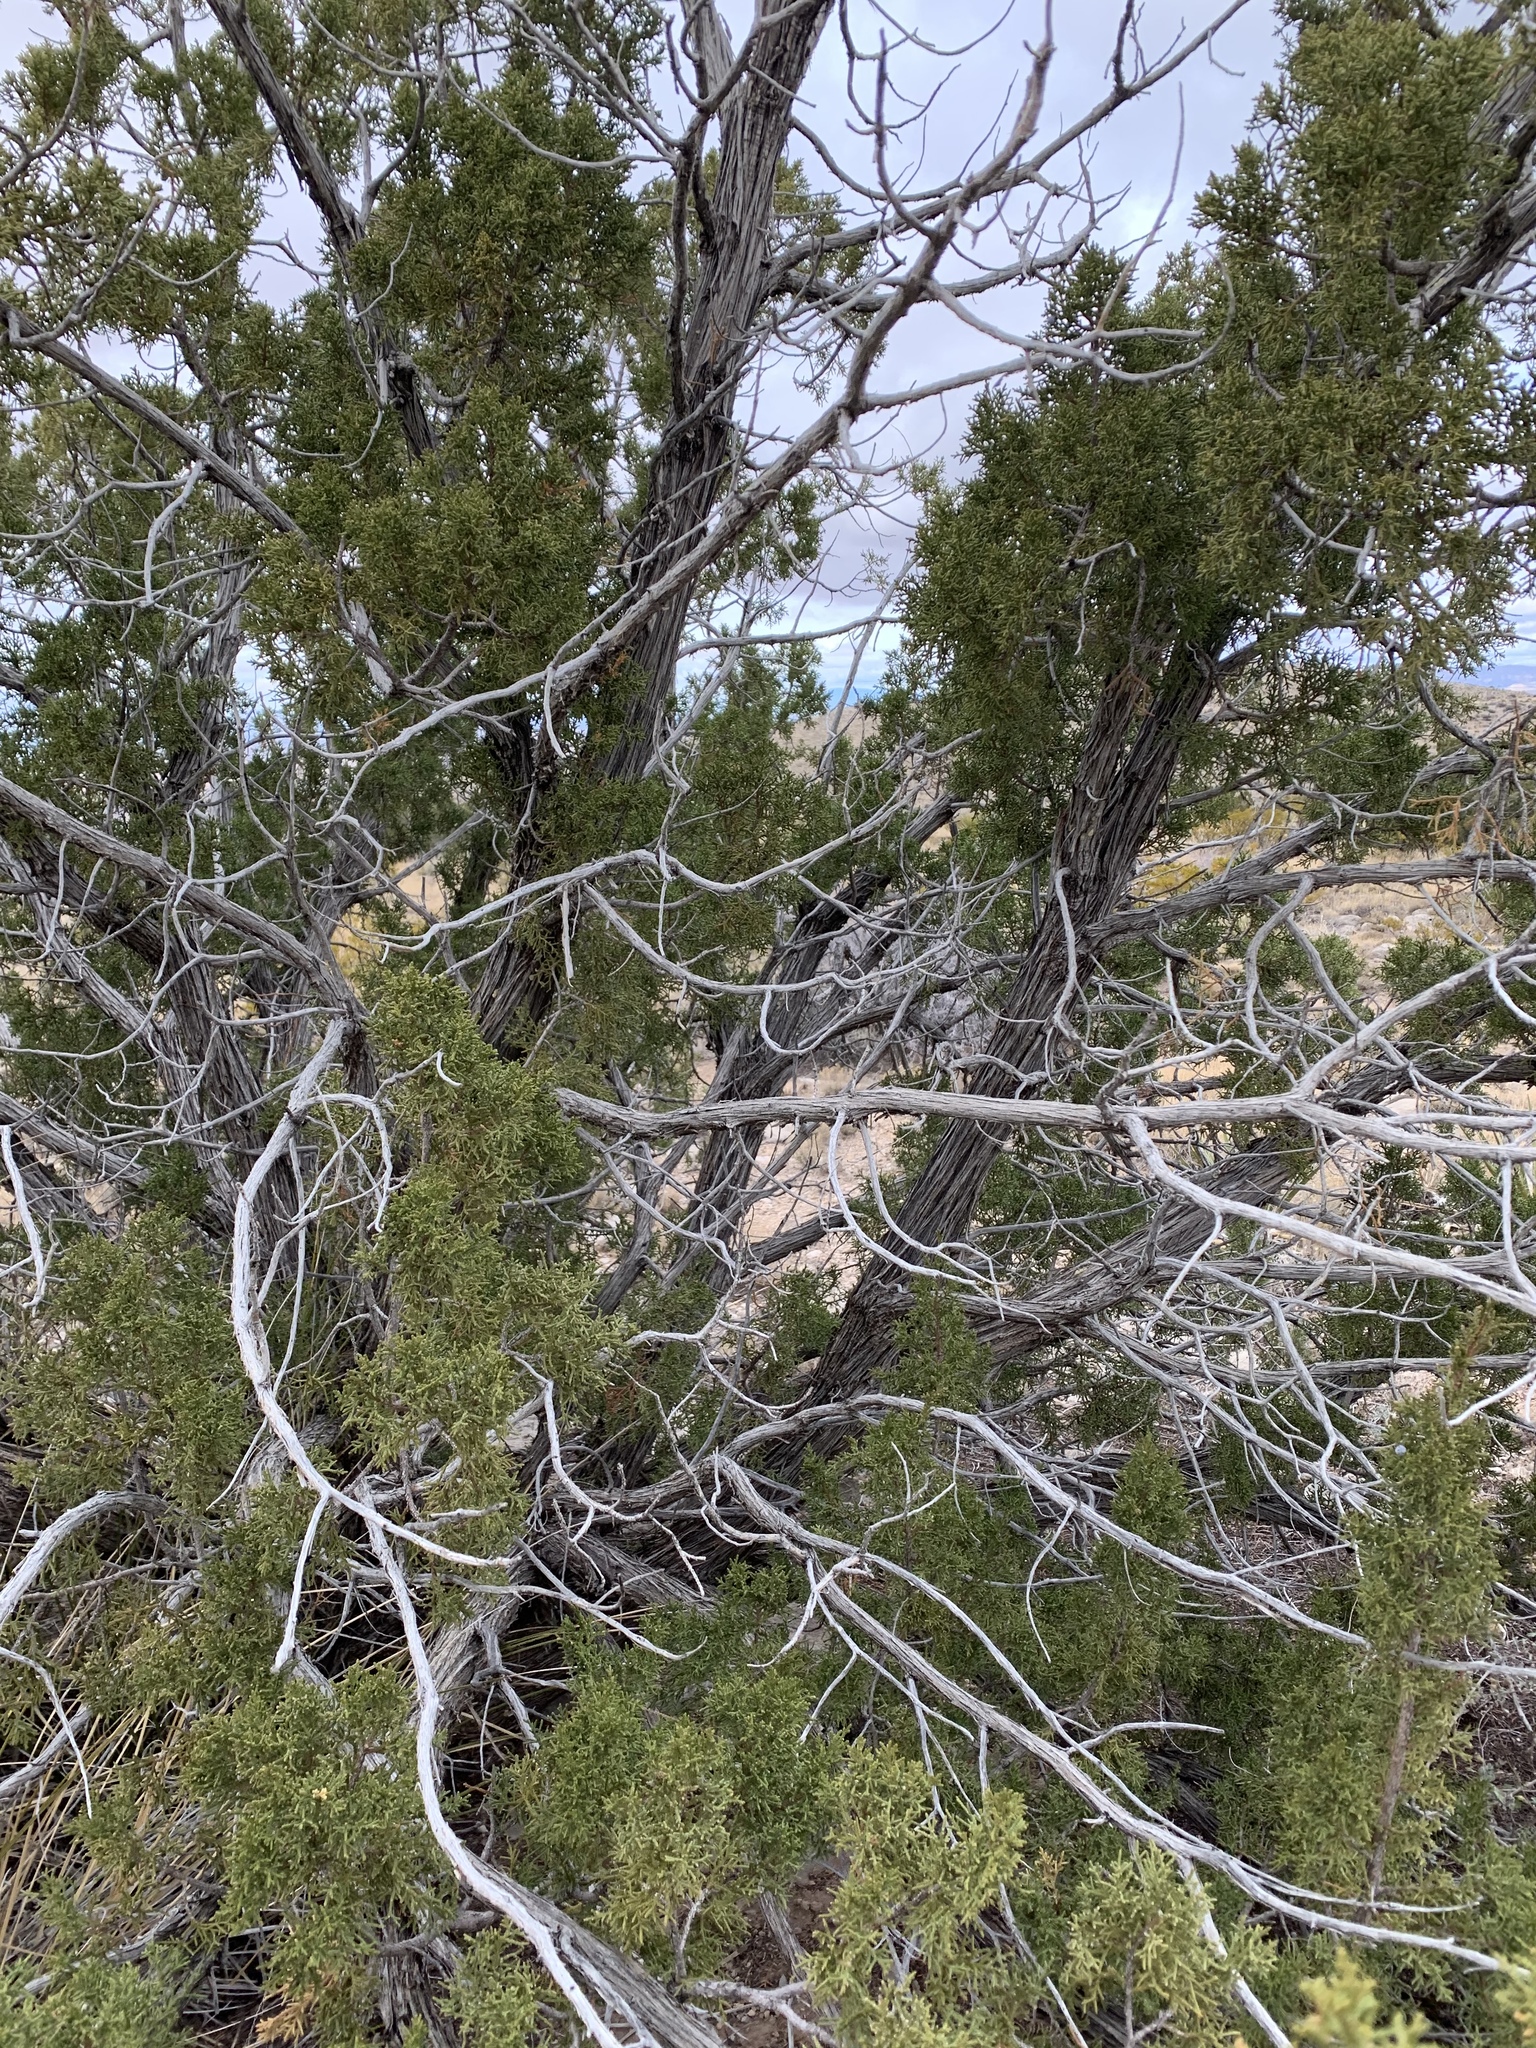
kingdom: Plantae
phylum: Tracheophyta
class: Pinopsida
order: Pinales
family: Cupressaceae
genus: Juniperus
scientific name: Juniperus monosperma
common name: One-seed juniper
